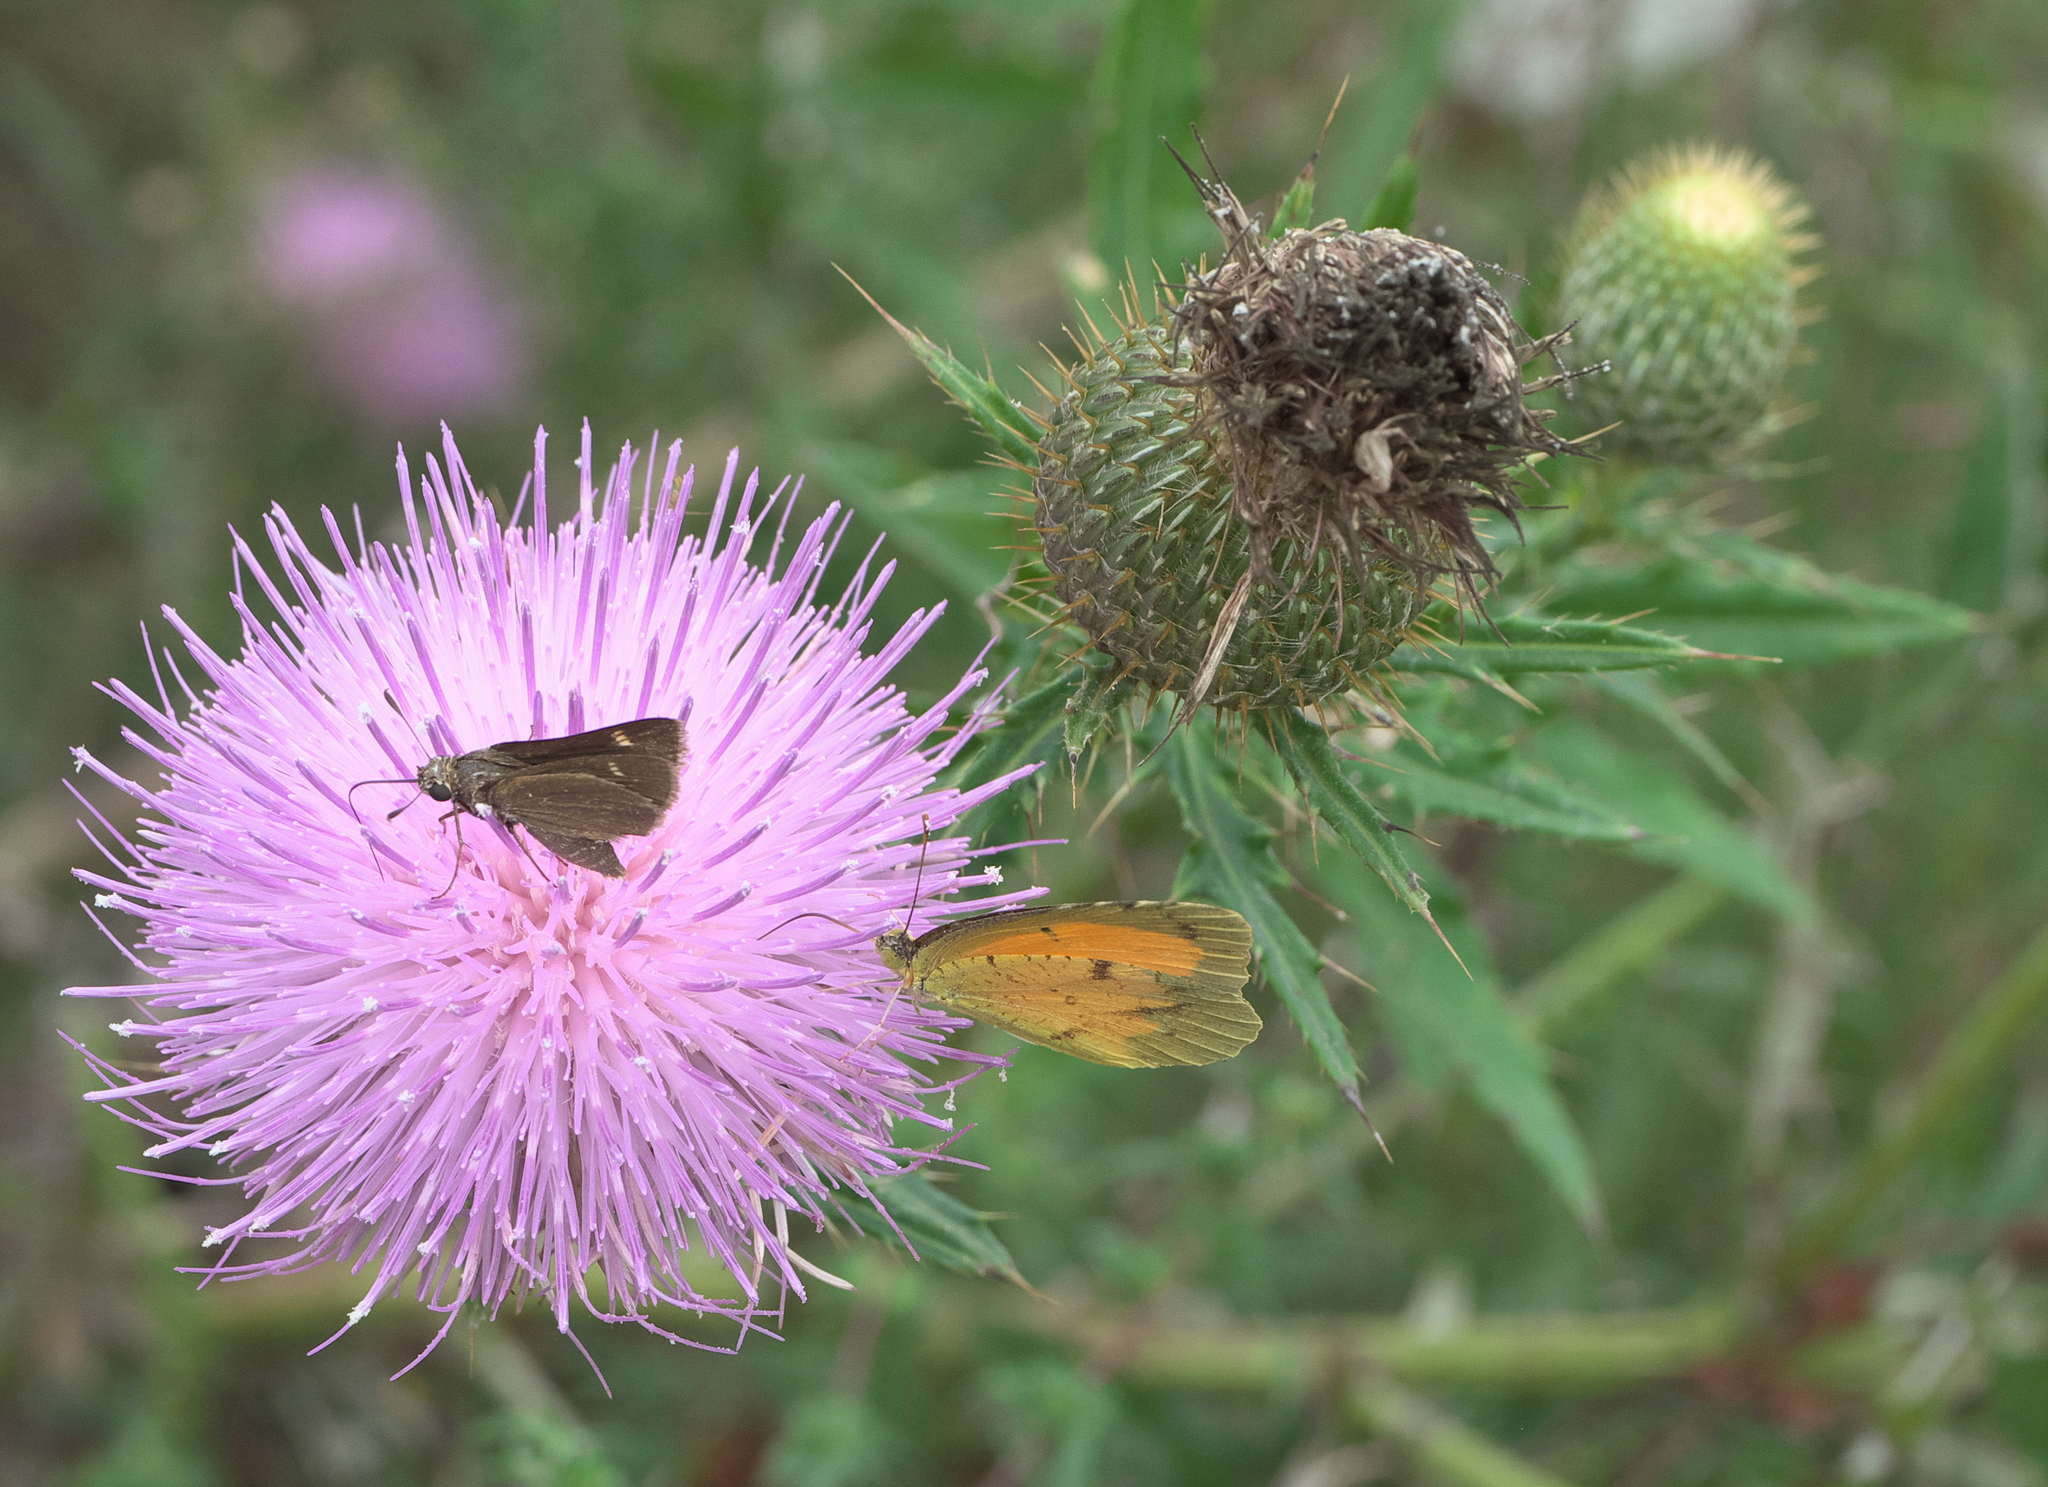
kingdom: Animalia
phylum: Arthropoda
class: Insecta
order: Lepidoptera
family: Pieridae
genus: Abaeis
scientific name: Abaeis nicippe
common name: Sleepy orange
